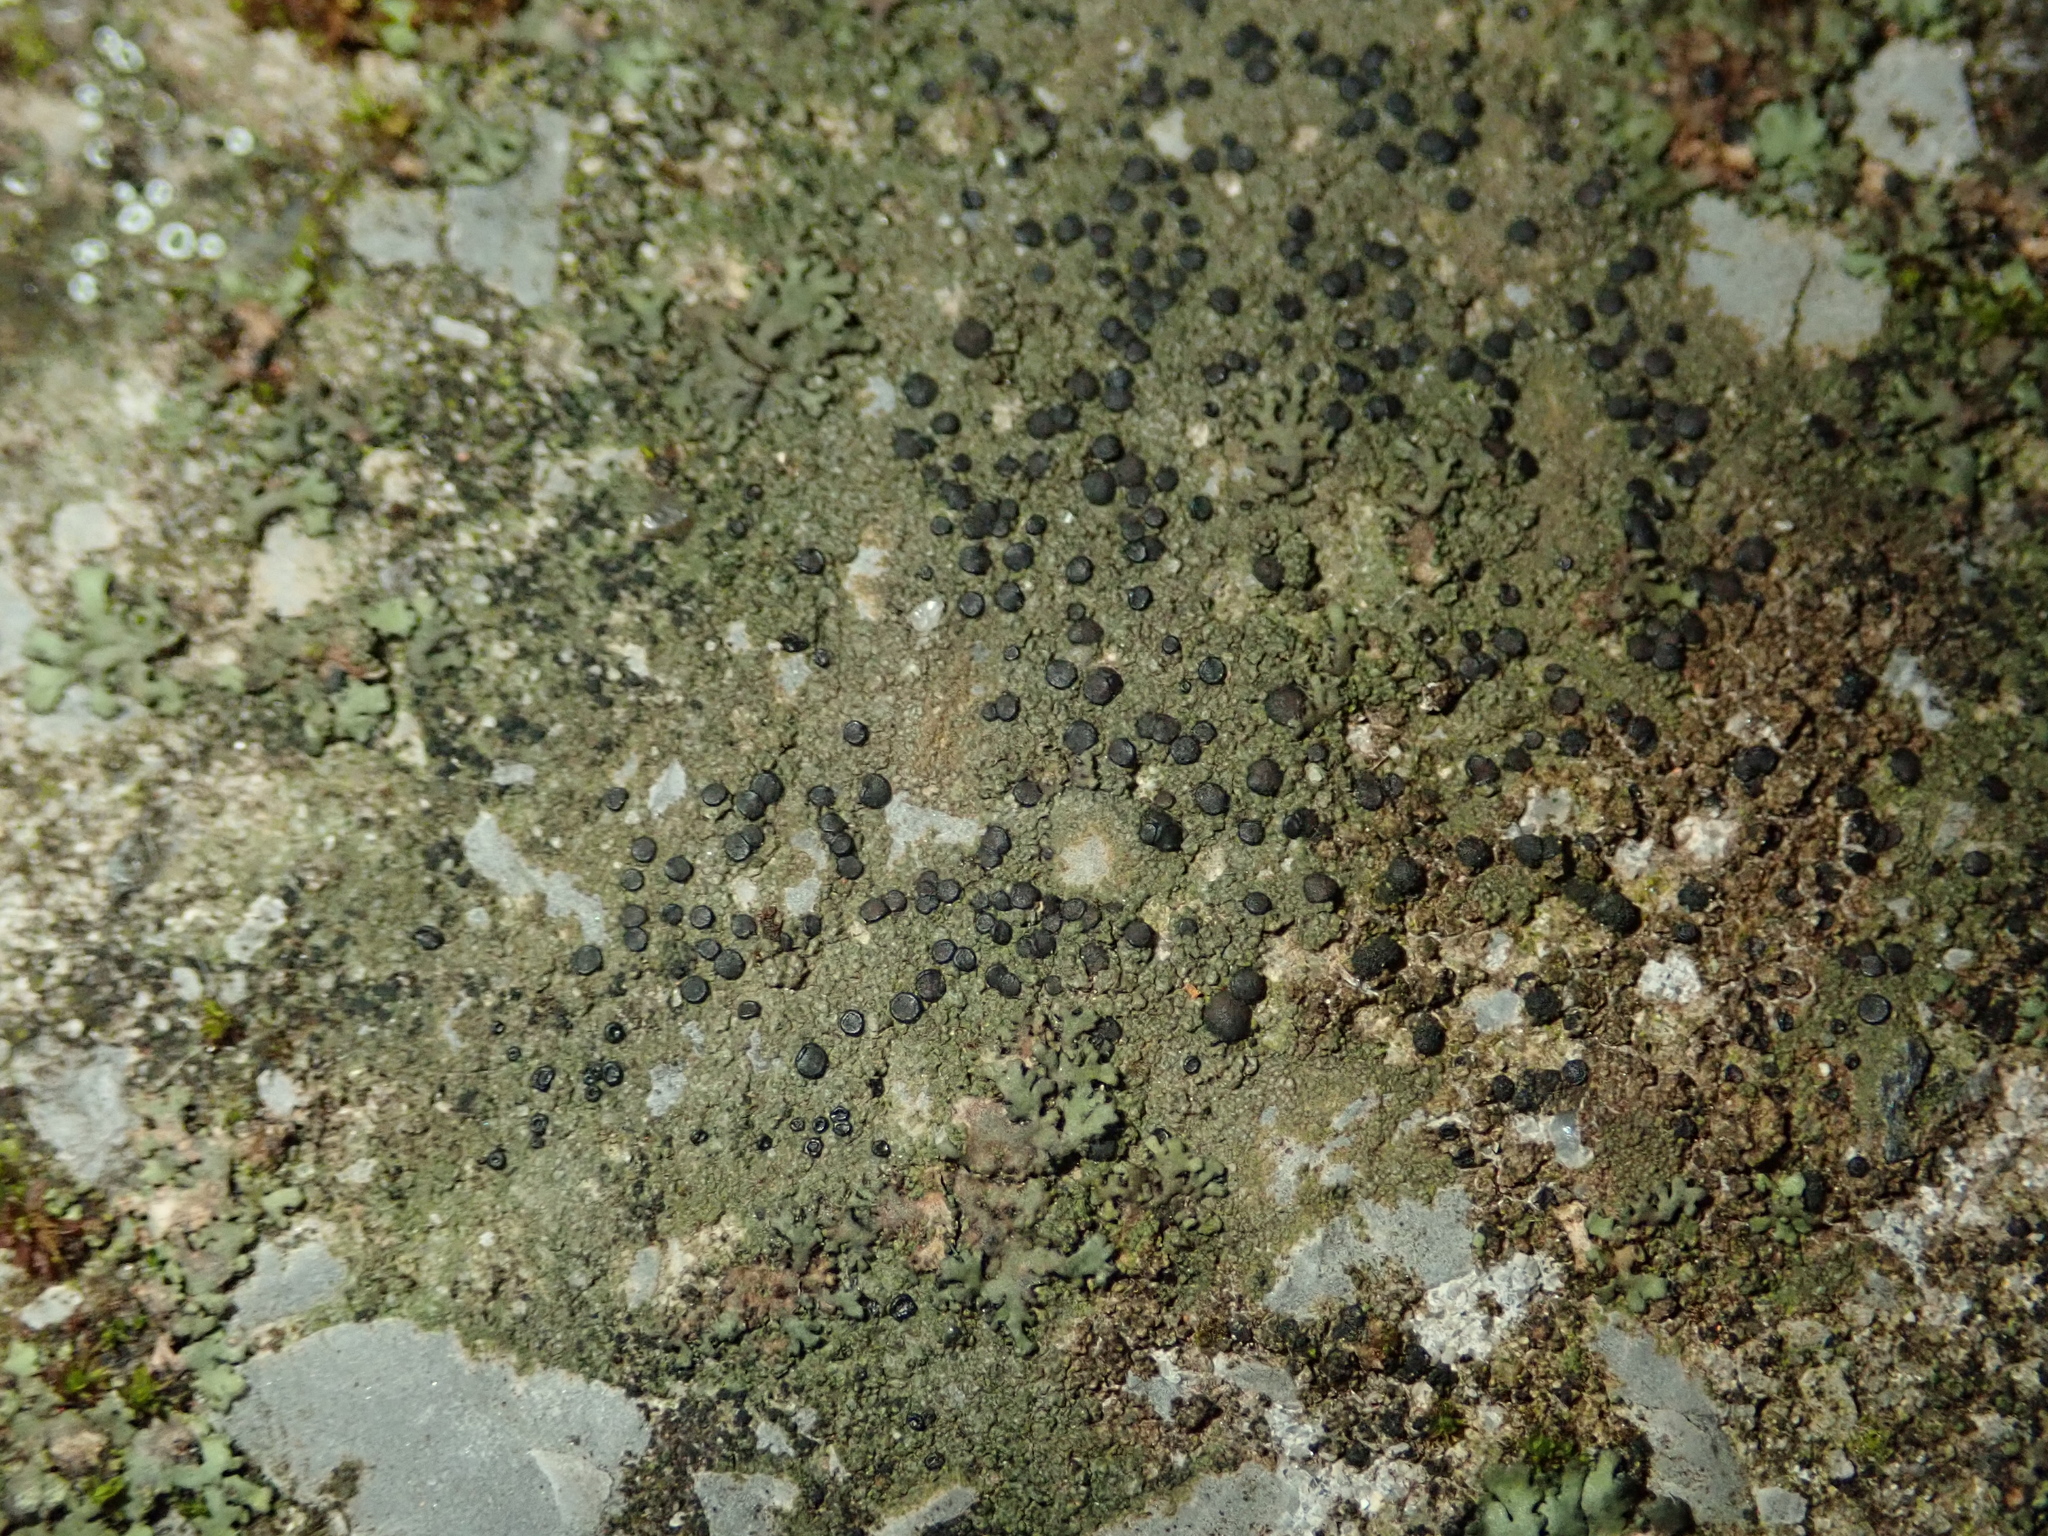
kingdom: Fungi
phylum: Ascomycota
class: Lecanoromycetes
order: Lecanorales
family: Lecanoraceae
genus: Lecidella
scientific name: Lecidella stigmatea
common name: Limestone disc lichen
